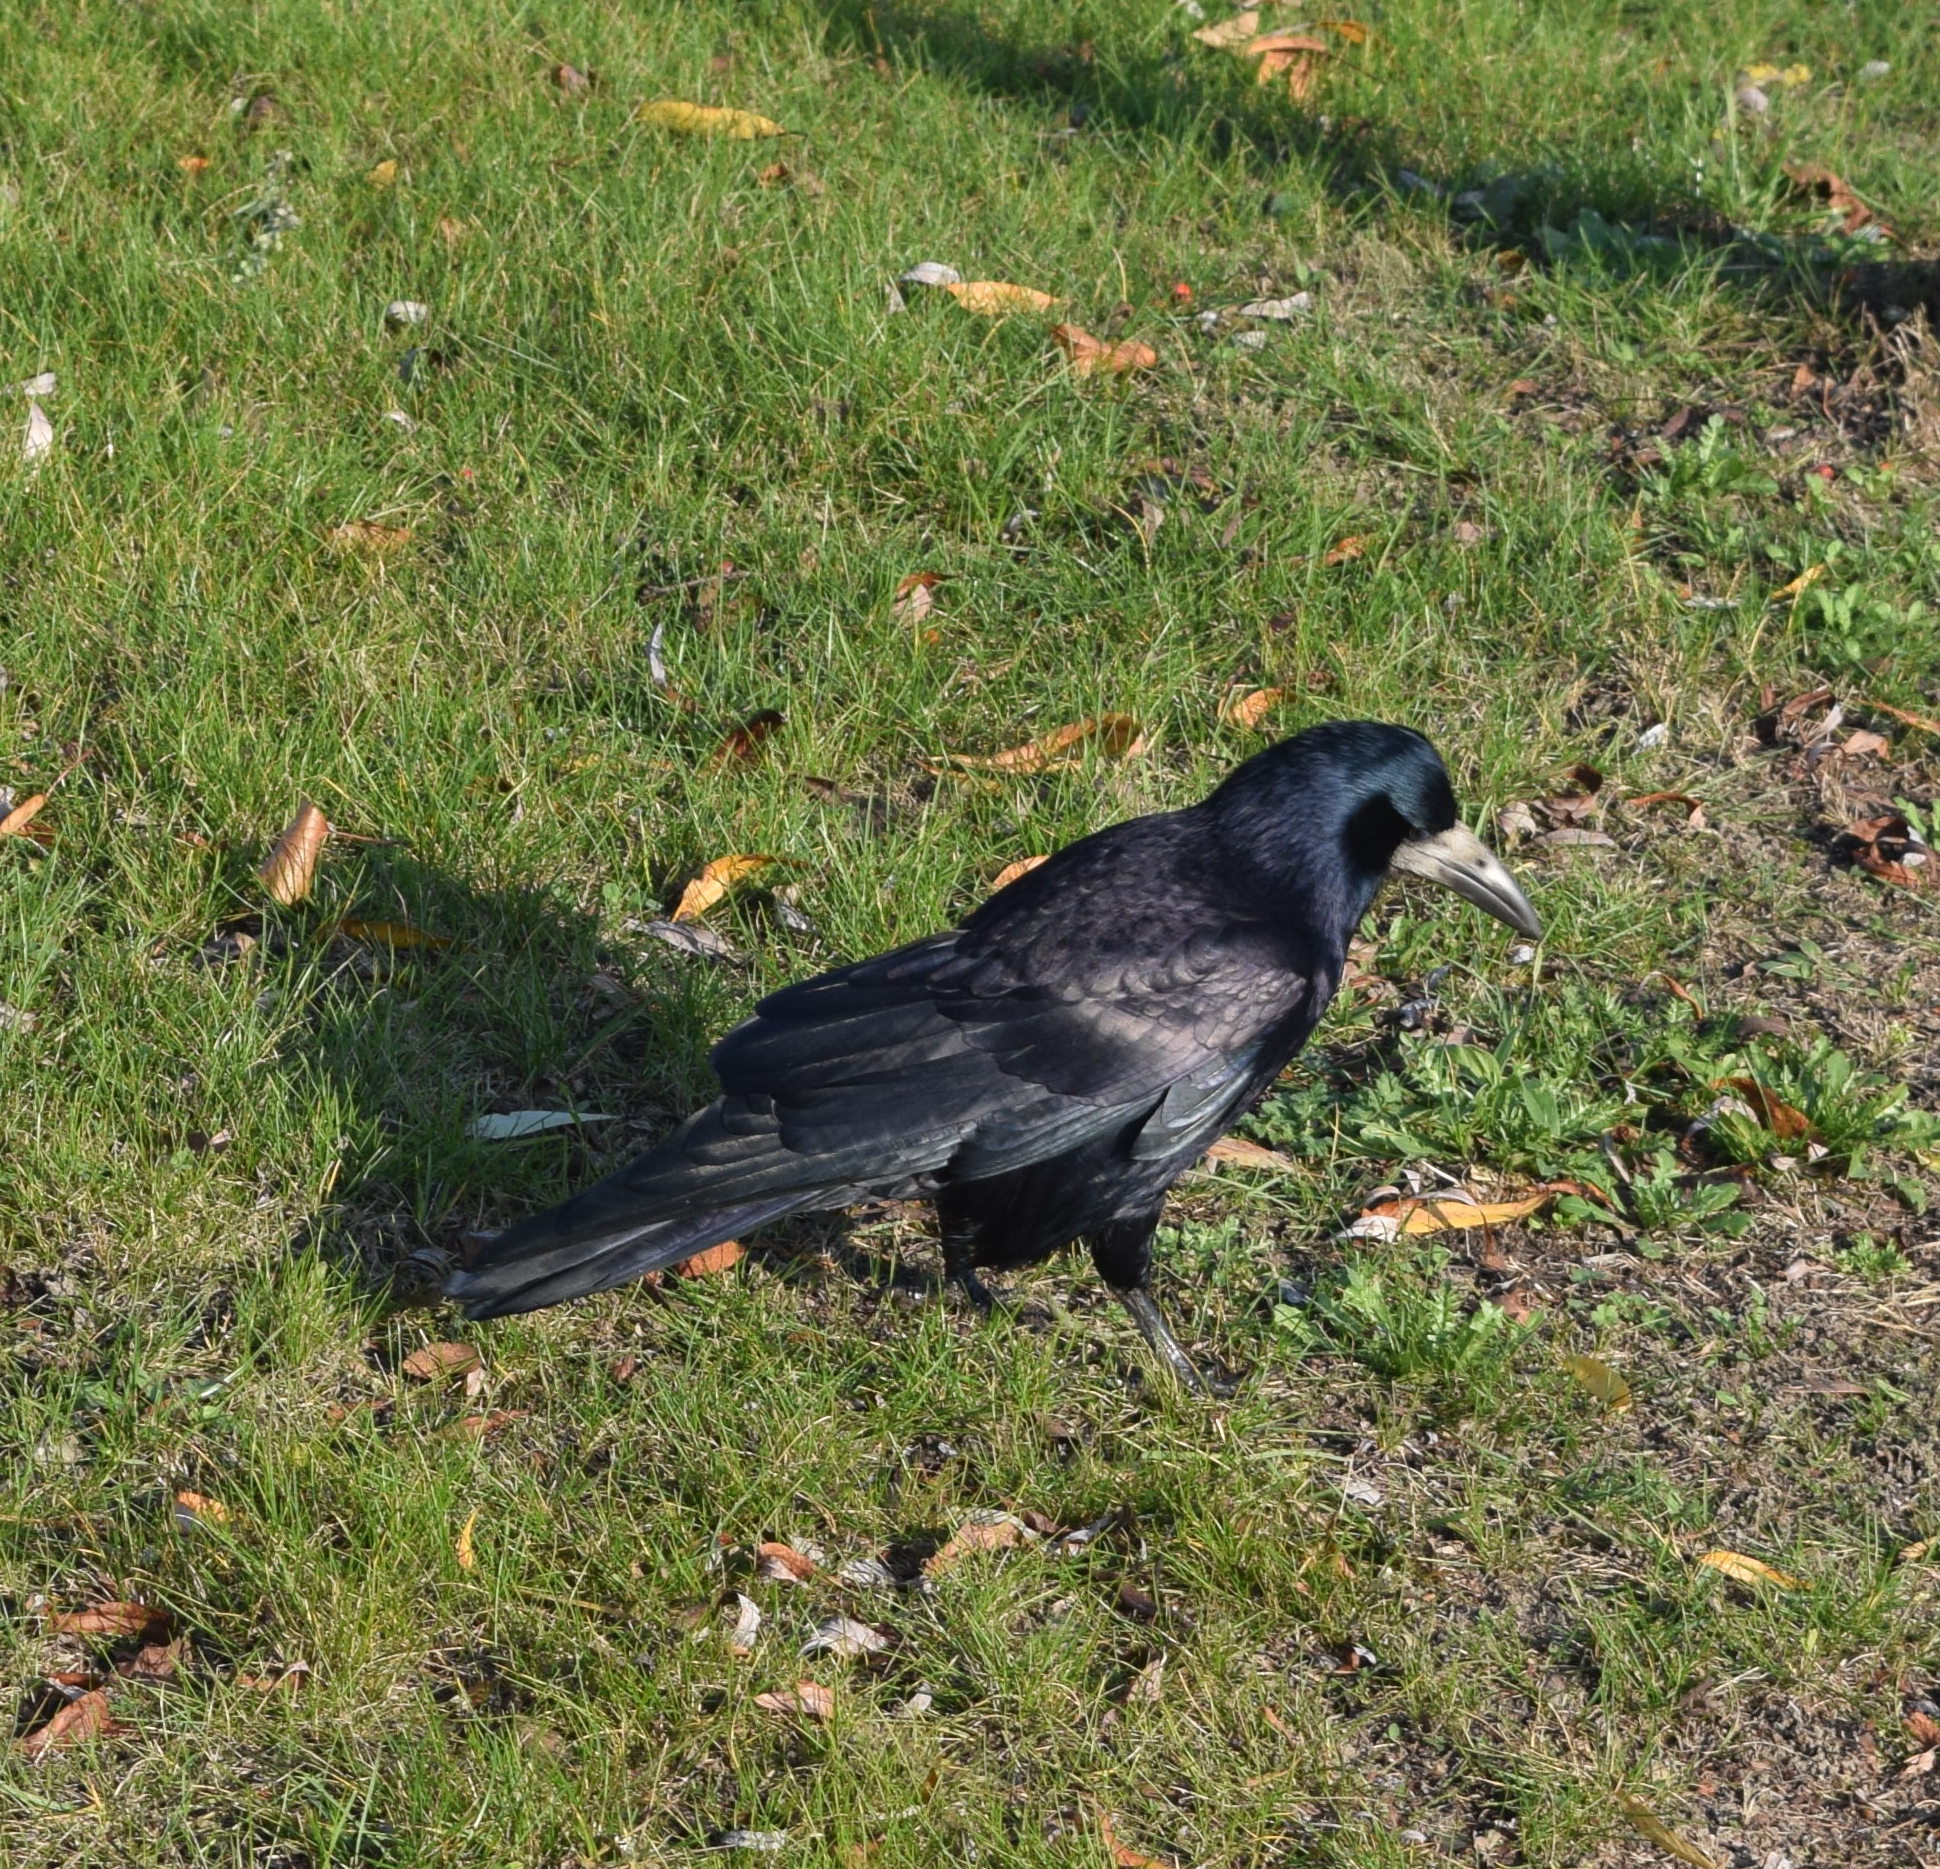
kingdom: Animalia
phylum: Chordata
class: Aves
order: Passeriformes
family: Corvidae
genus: Corvus
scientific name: Corvus frugilegus
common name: Rook
